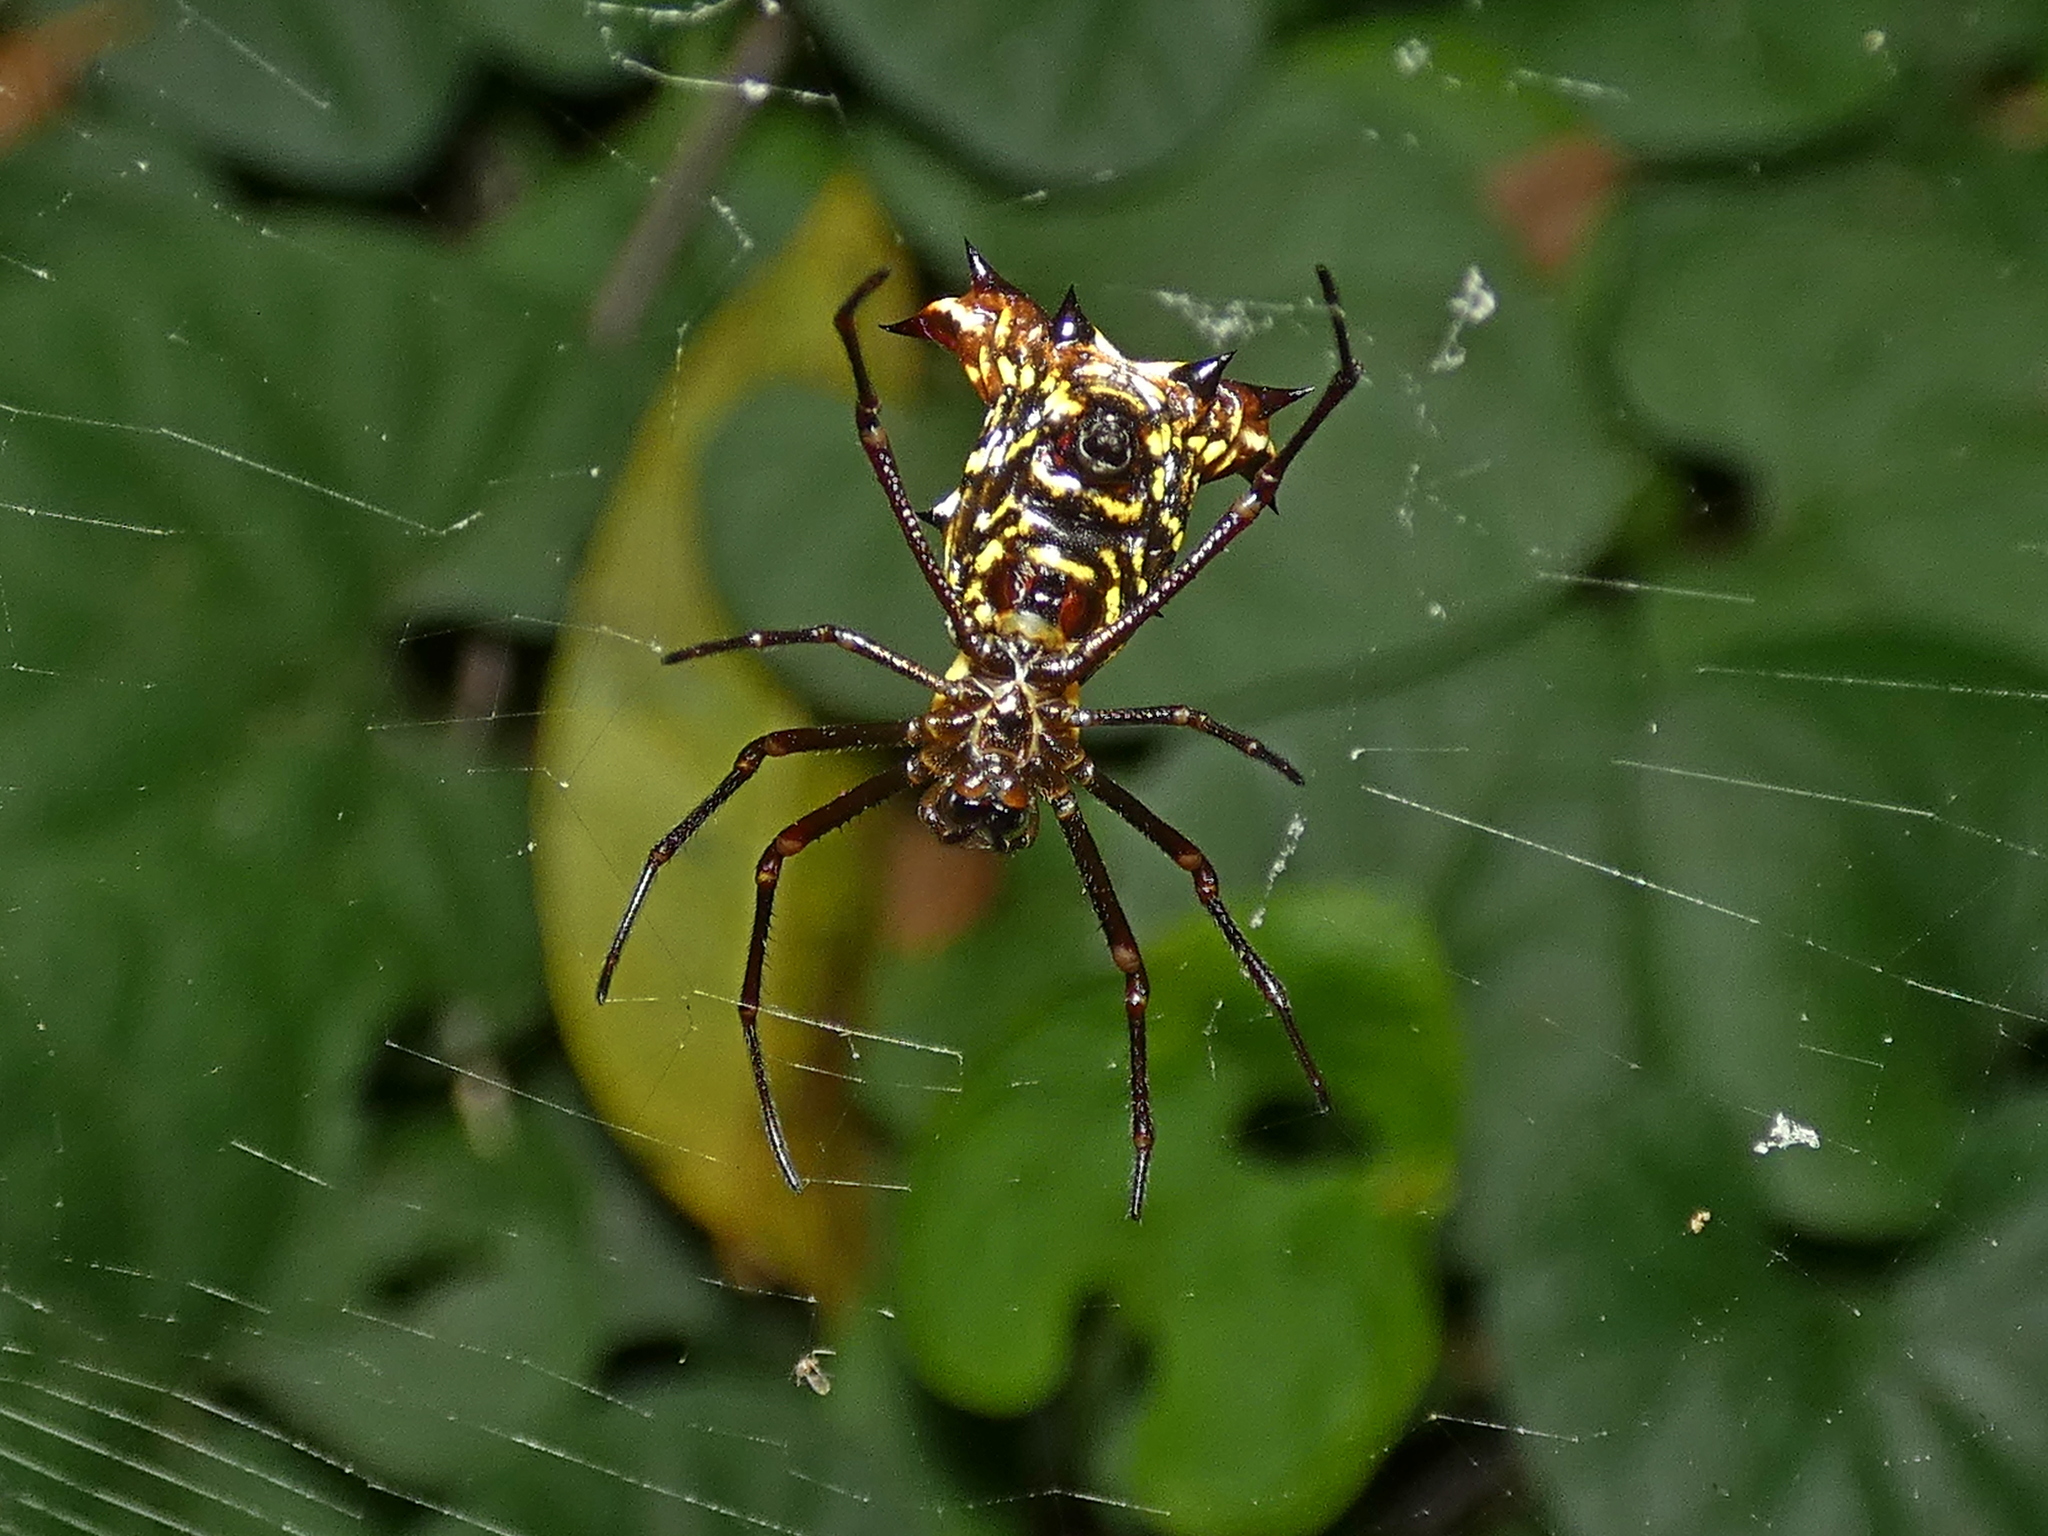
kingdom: Animalia
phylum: Arthropoda
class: Arachnida
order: Araneae
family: Araneidae
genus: Micrathena
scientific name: Micrathena fissispina
